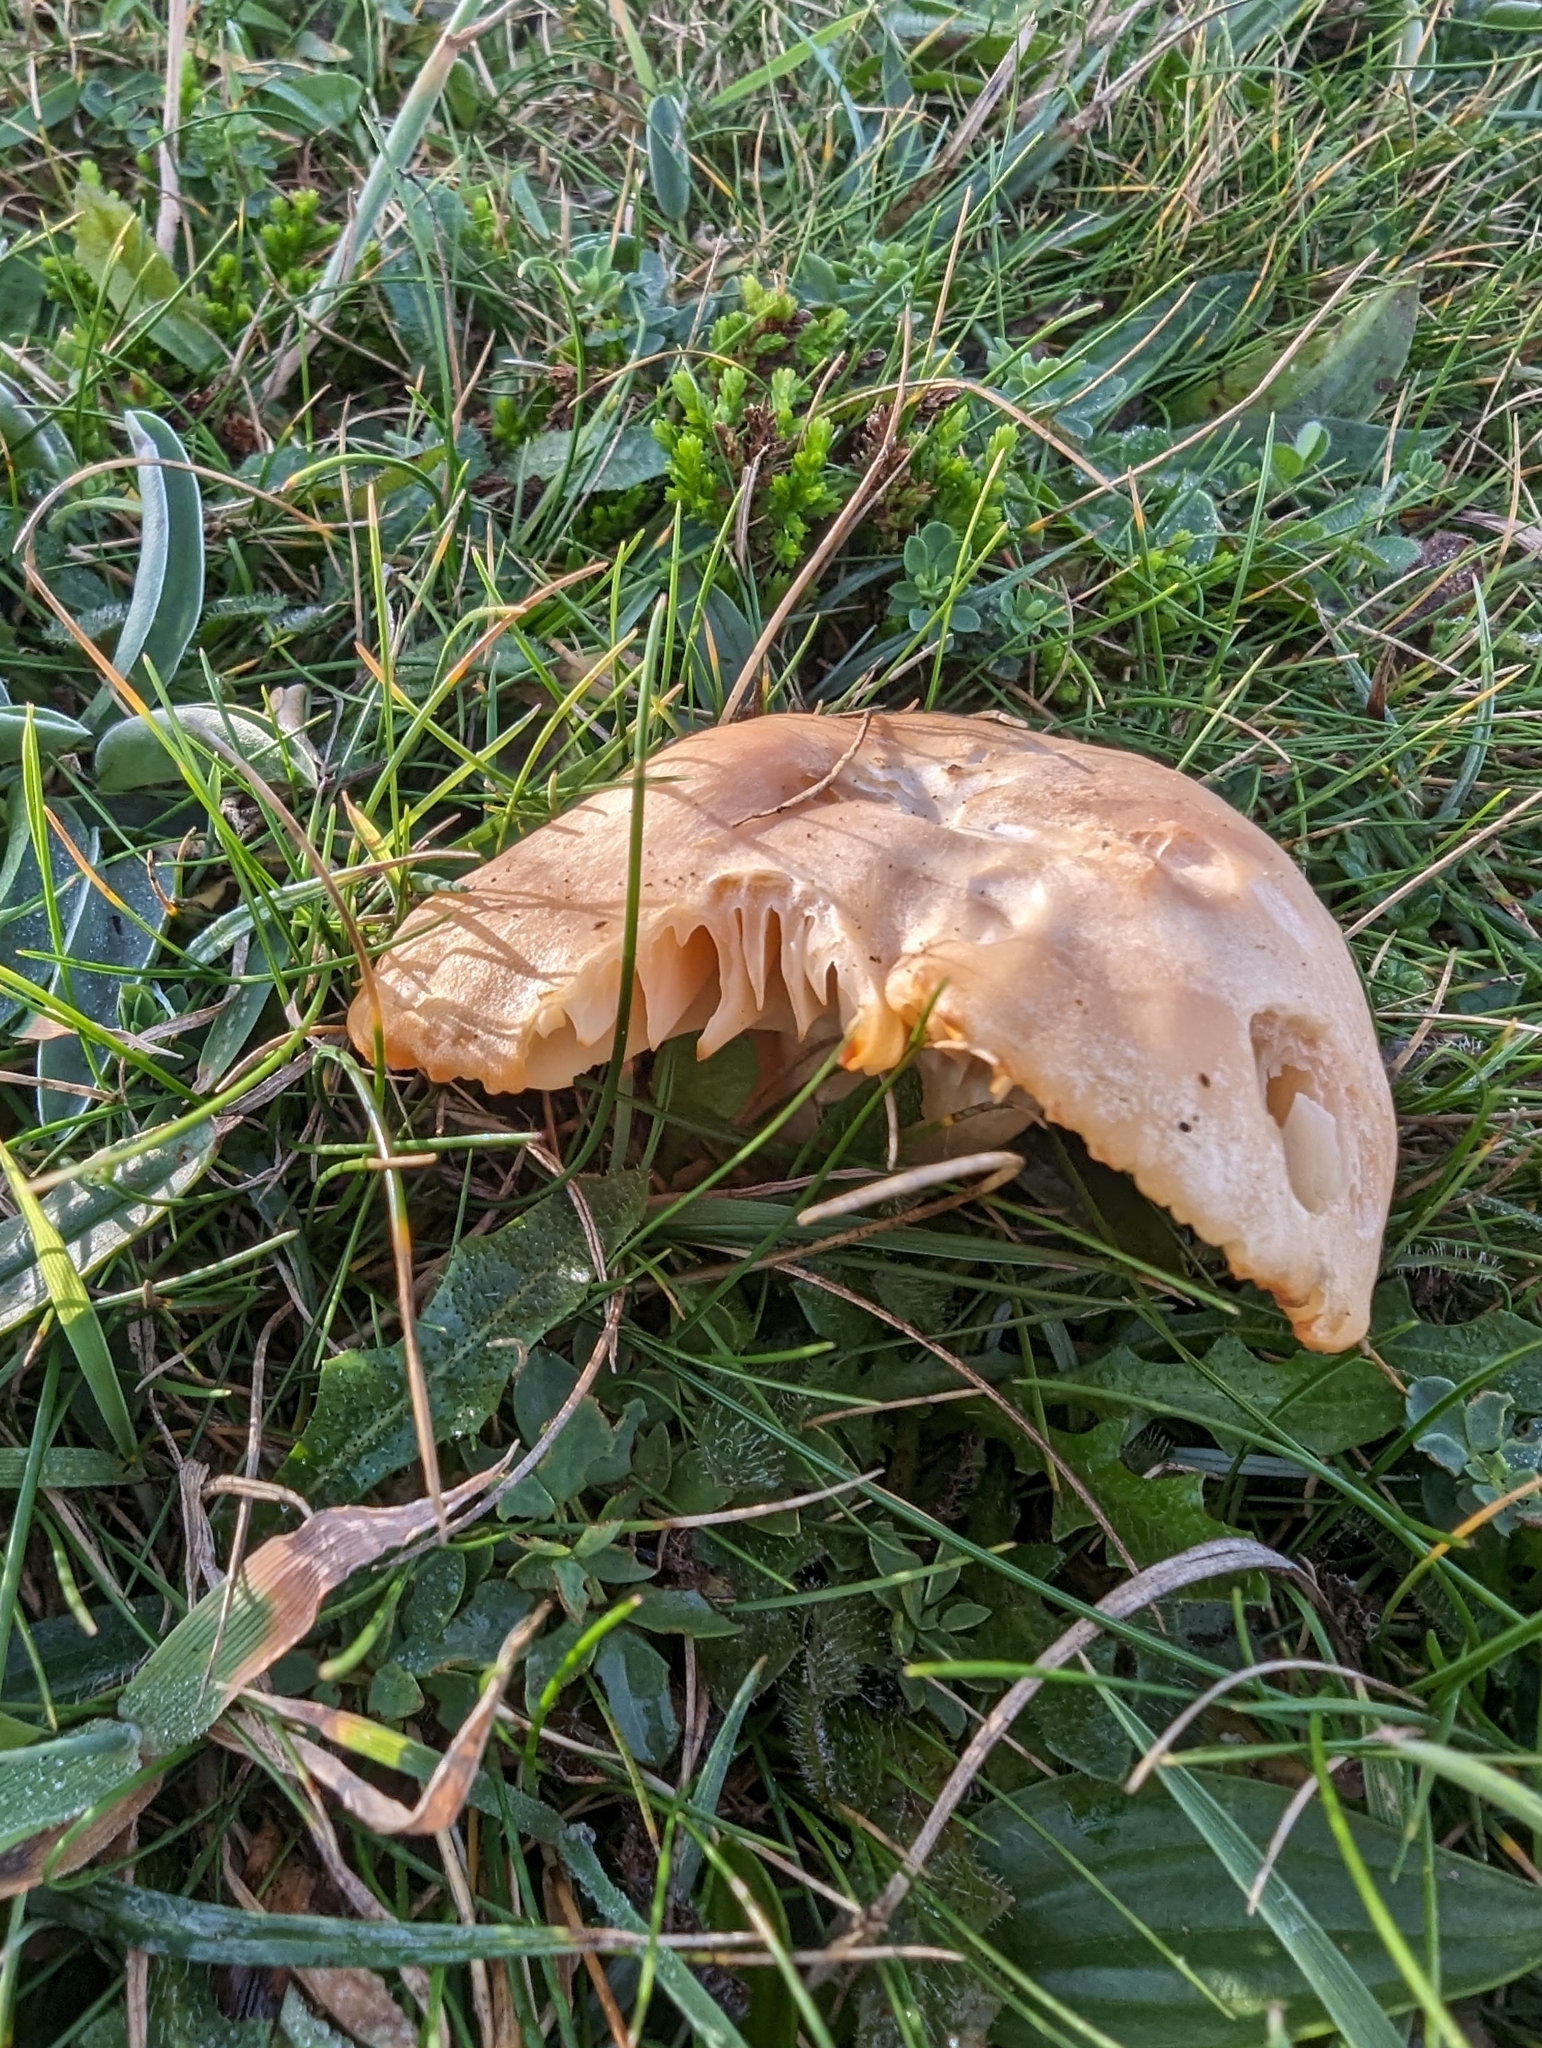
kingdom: Fungi
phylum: Basidiomycota
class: Agaricomycetes
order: Agaricales
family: Hygrophoraceae
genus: Cuphophyllus
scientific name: Cuphophyllus pratensis
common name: Meadow waxcap
